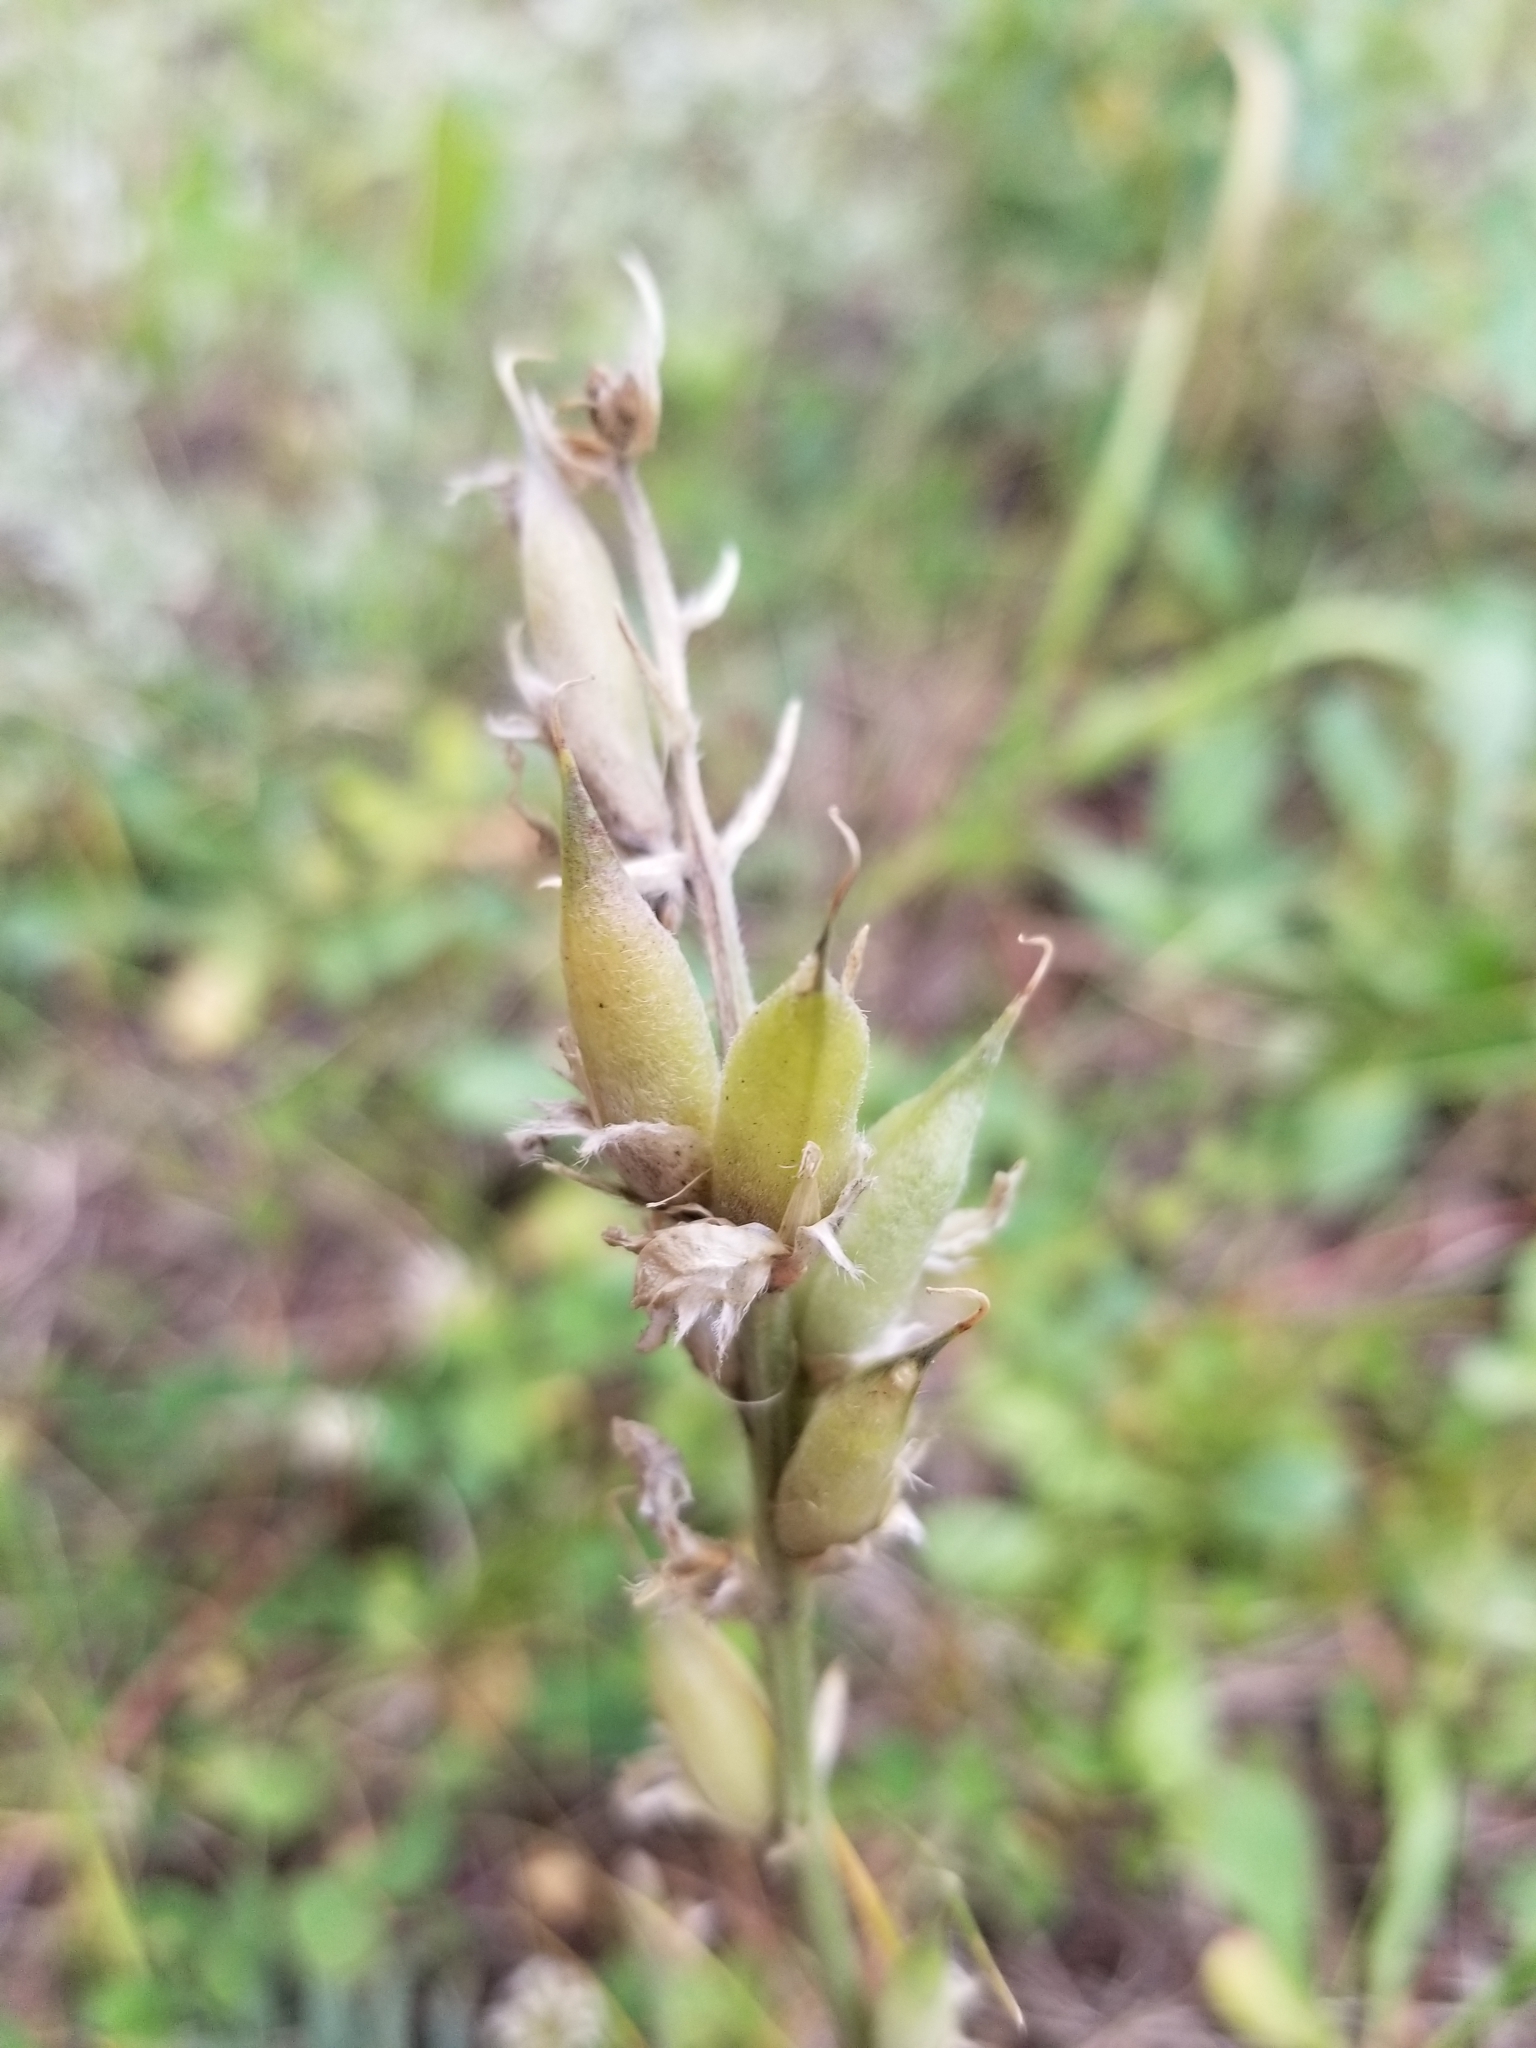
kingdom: Plantae
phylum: Tracheophyta
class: Magnoliopsida
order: Fabales
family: Fabaceae
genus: Oxytropis
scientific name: Oxytropis lambertii
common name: Purple locoweed
